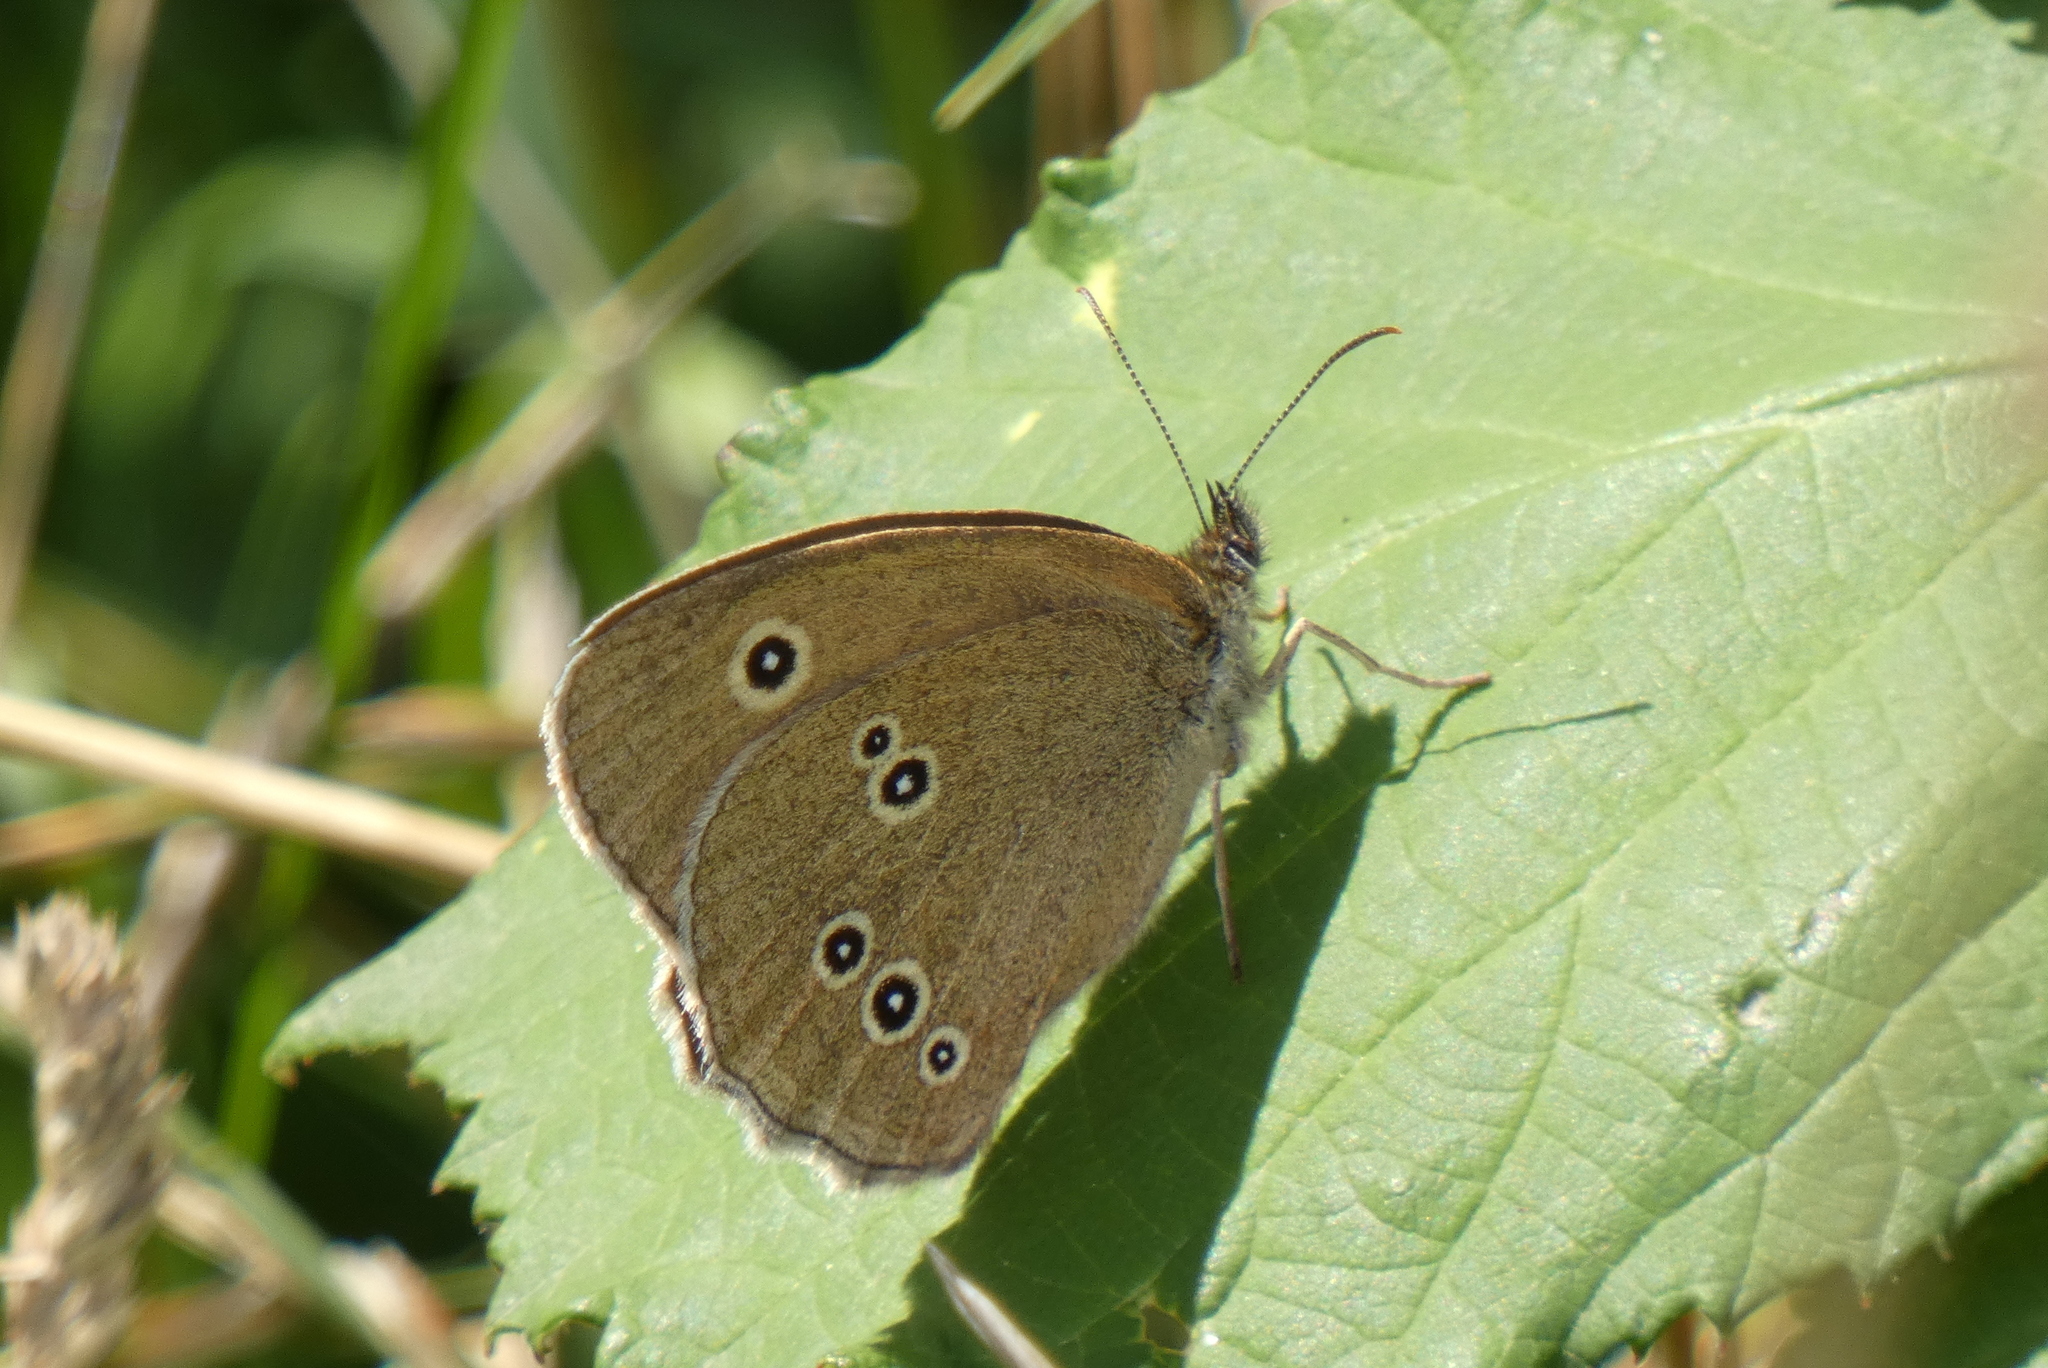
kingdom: Animalia
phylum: Arthropoda
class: Insecta
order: Lepidoptera
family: Nymphalidae
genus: Aphantopus
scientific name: Aphantopus hyperantus
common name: Ringlet
